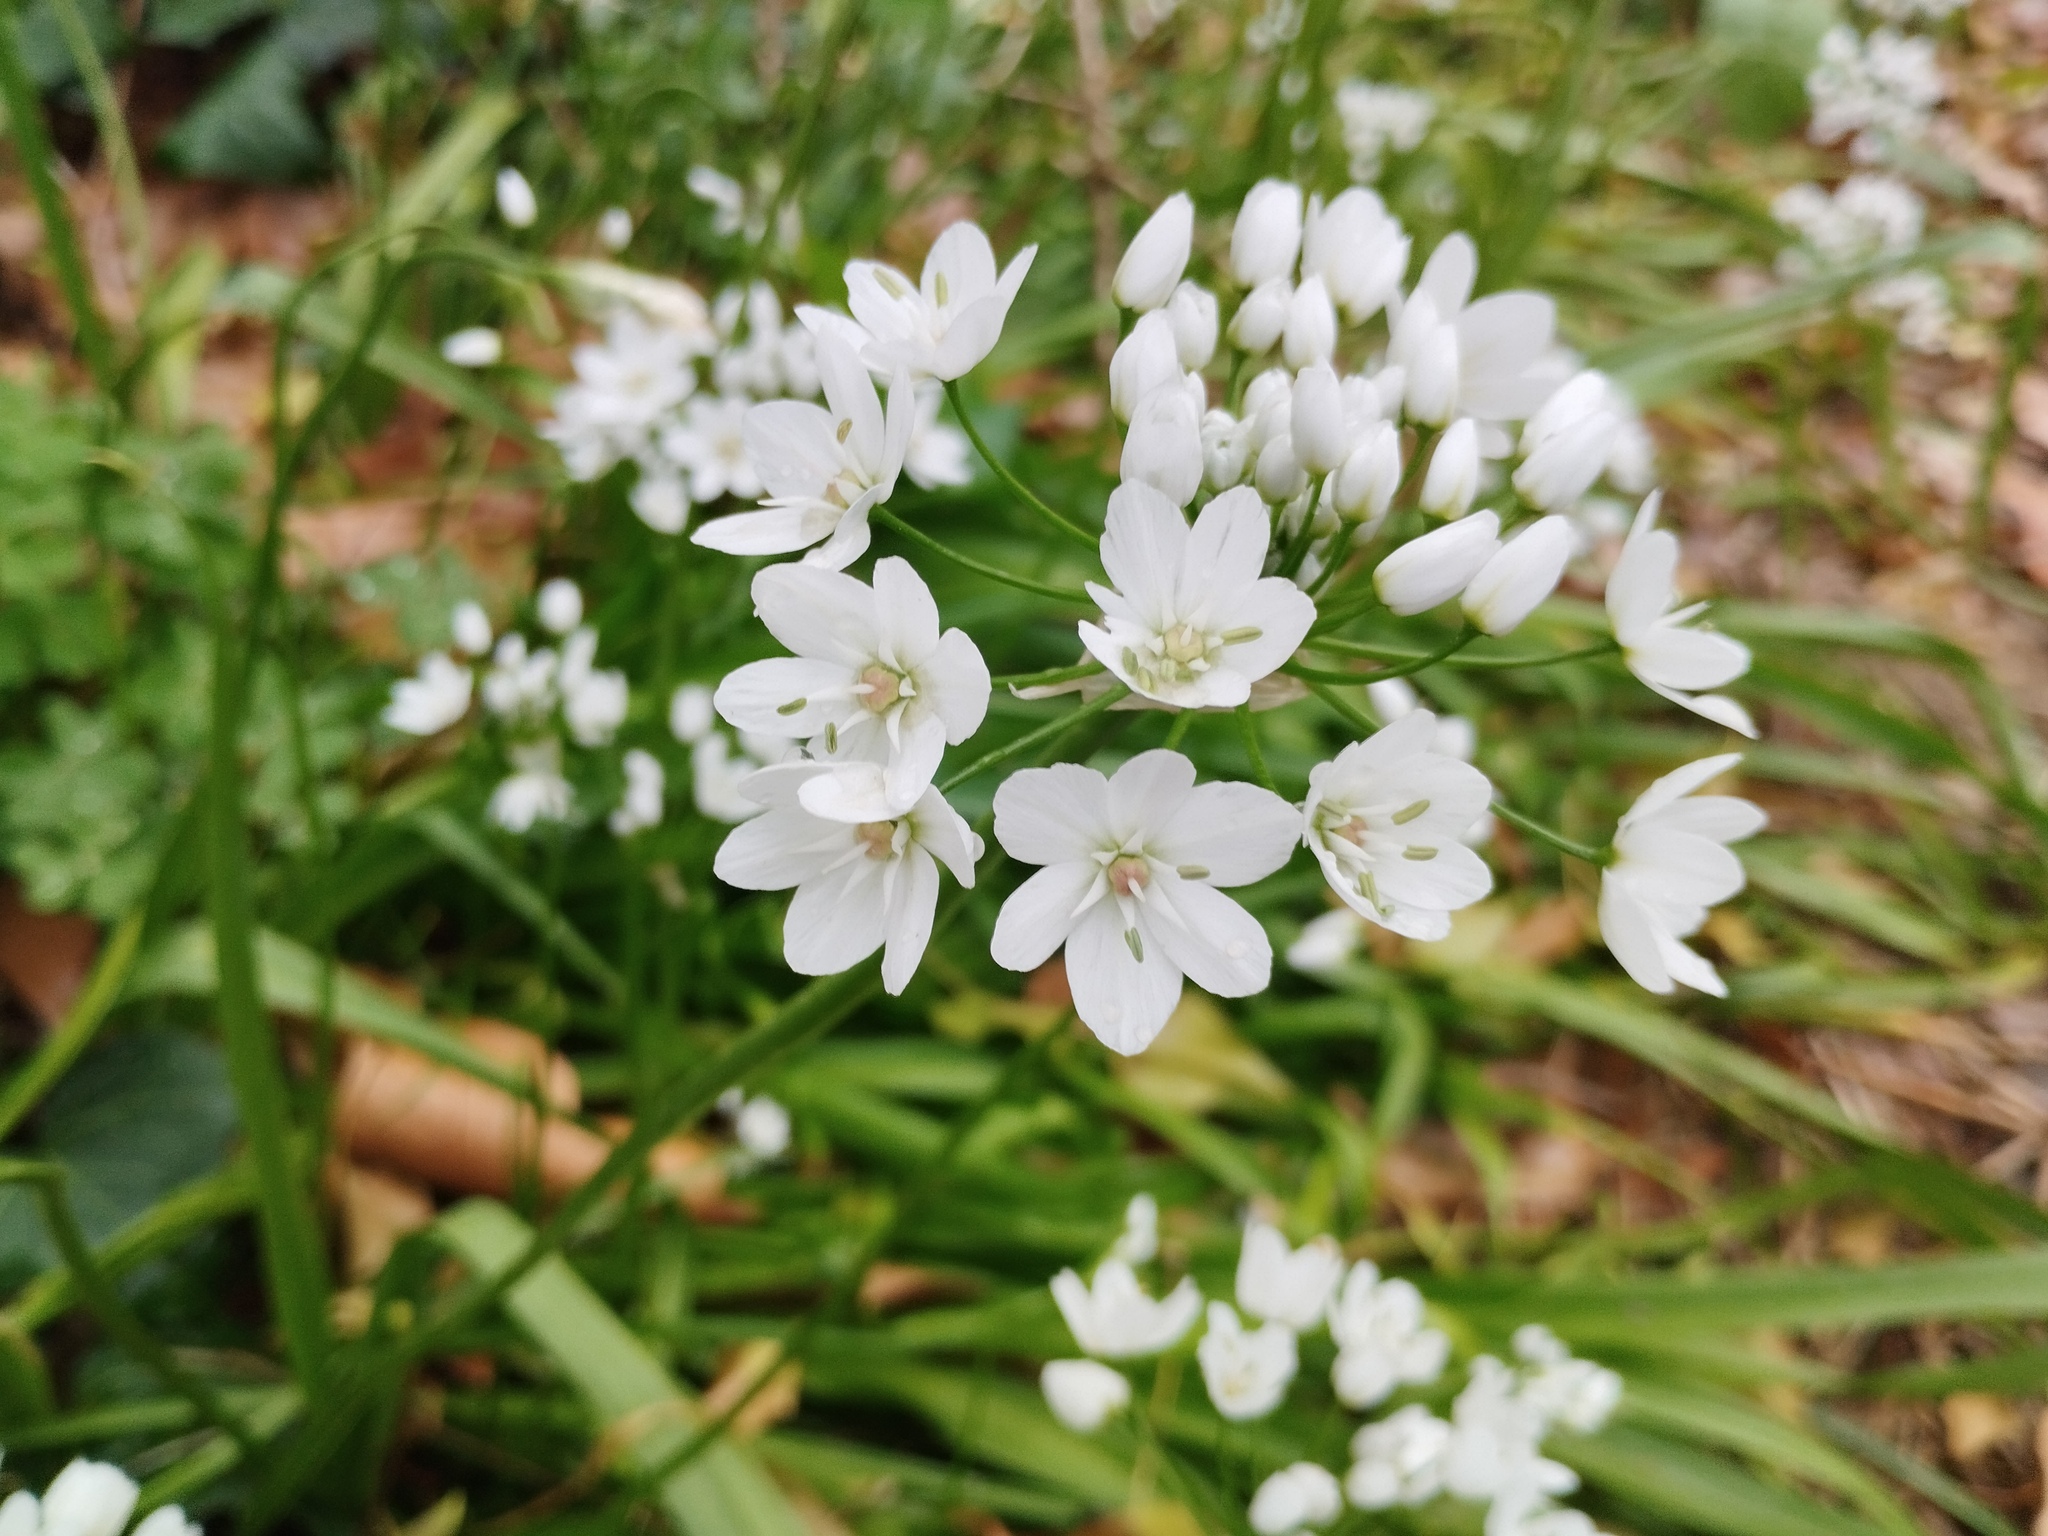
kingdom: Plantae
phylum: Tracheophyta
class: Liliopsida
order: Asparagales
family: Amaryllidaceae
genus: Allium
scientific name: Allium neapolitanum
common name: Neapolitan garlic
